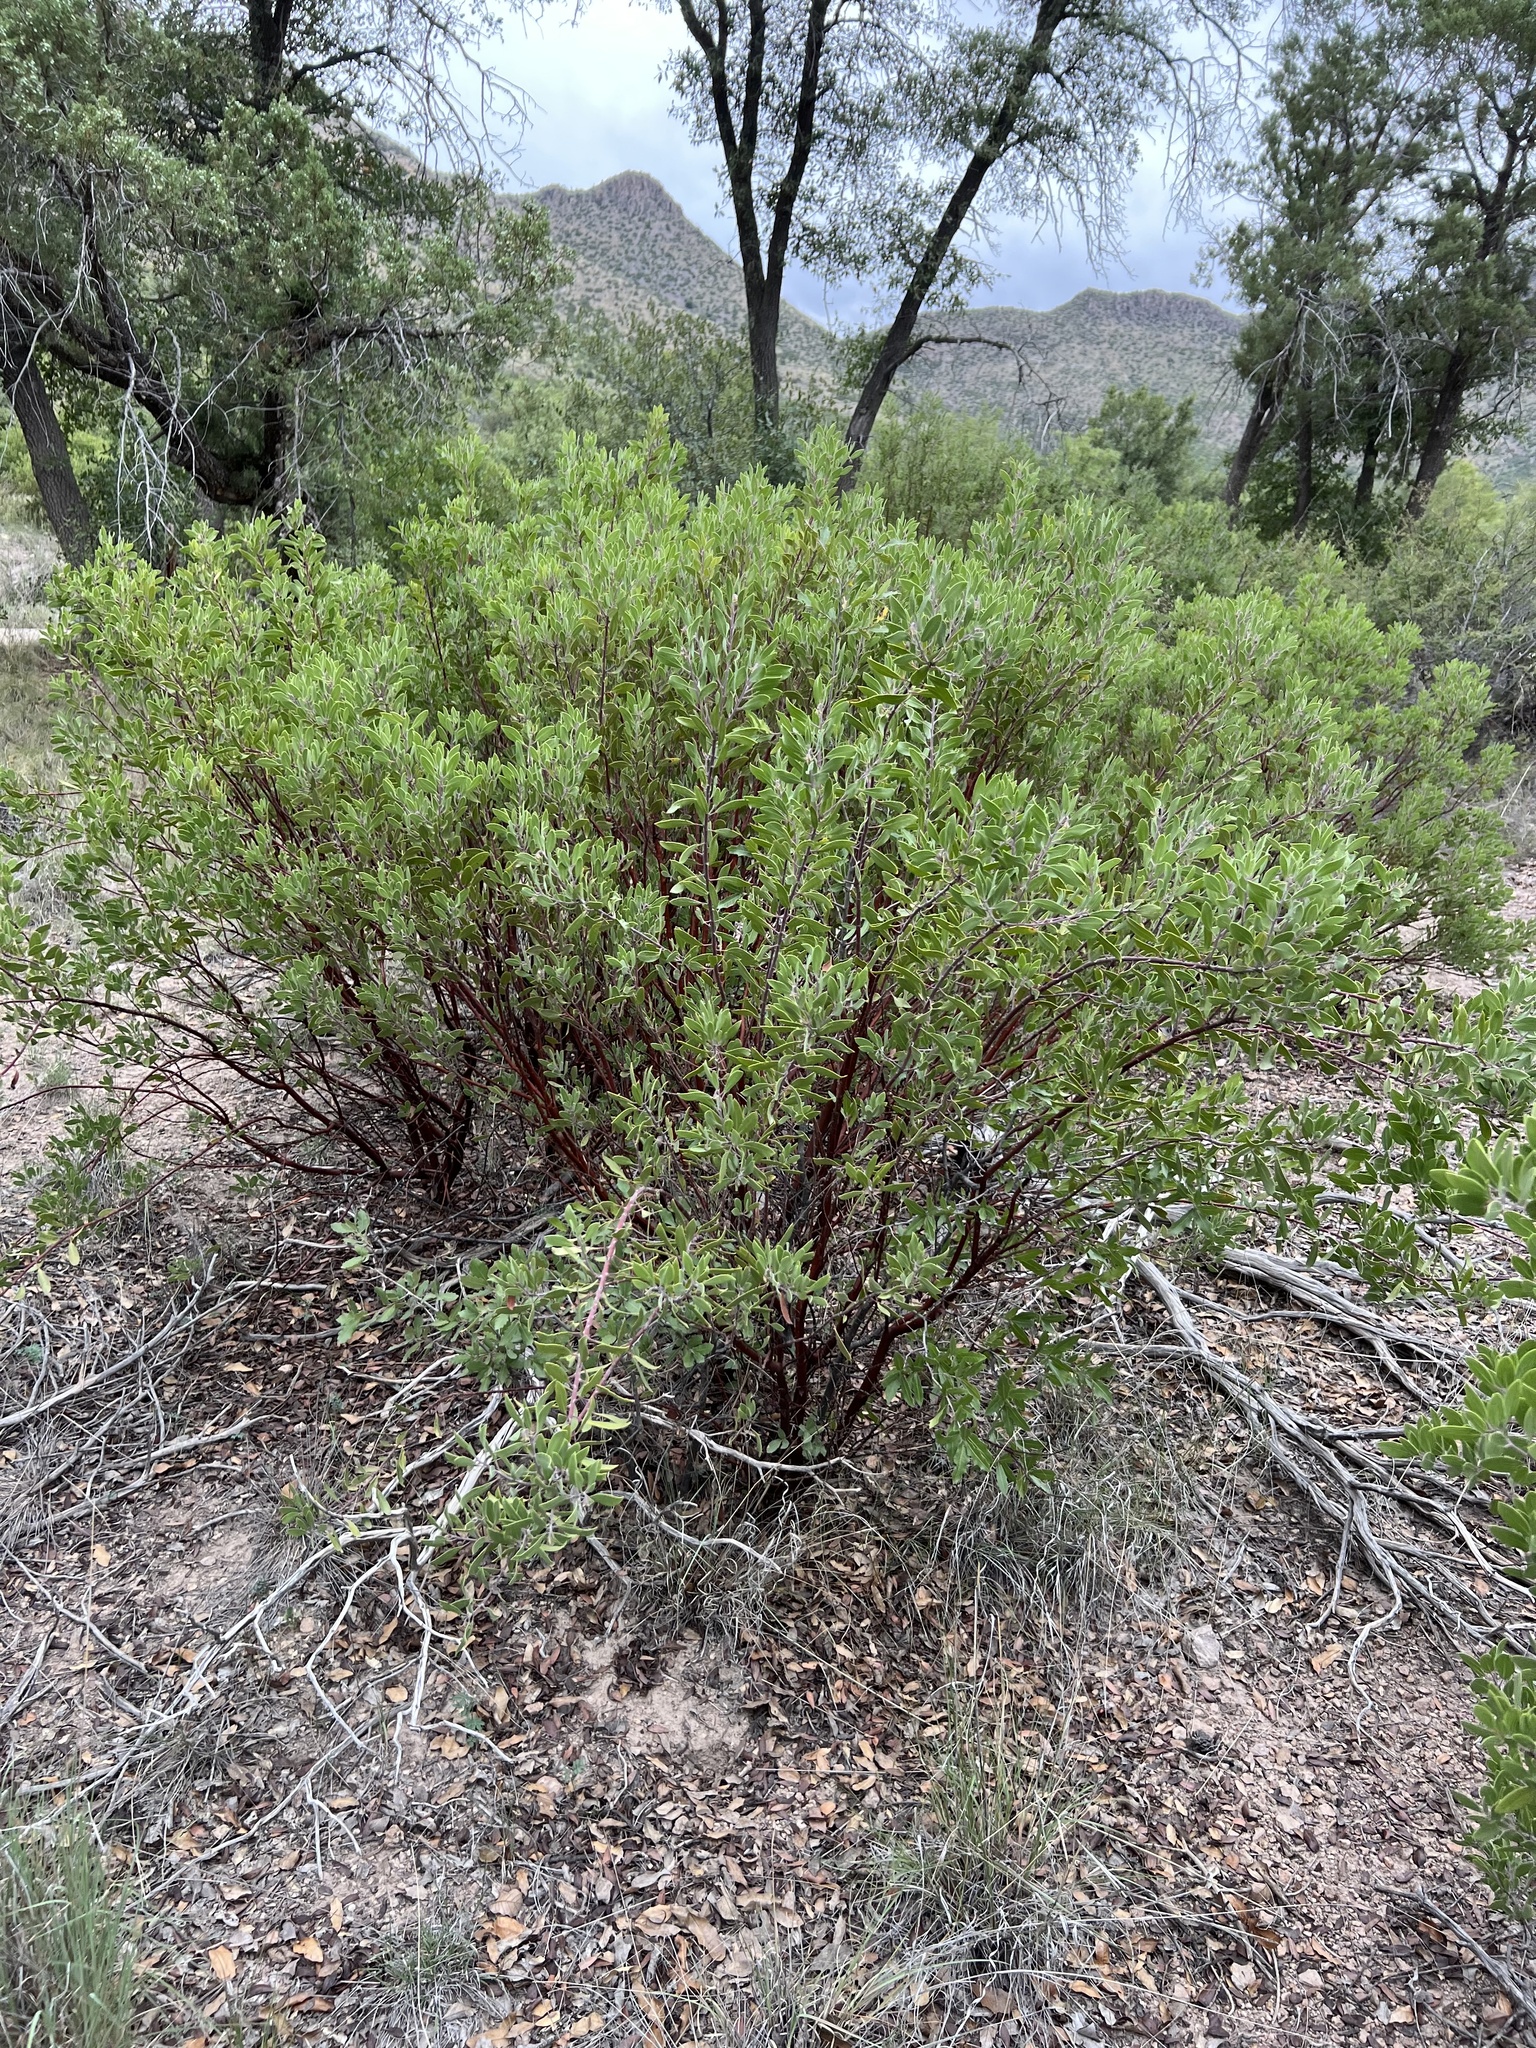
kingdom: Plantae
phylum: Tracheophyta
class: Magnoliopsida
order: Ericales
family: Ericaceae
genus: Arctostaphylos
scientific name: Arctostaphylos pungens
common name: Mexican manzanita
